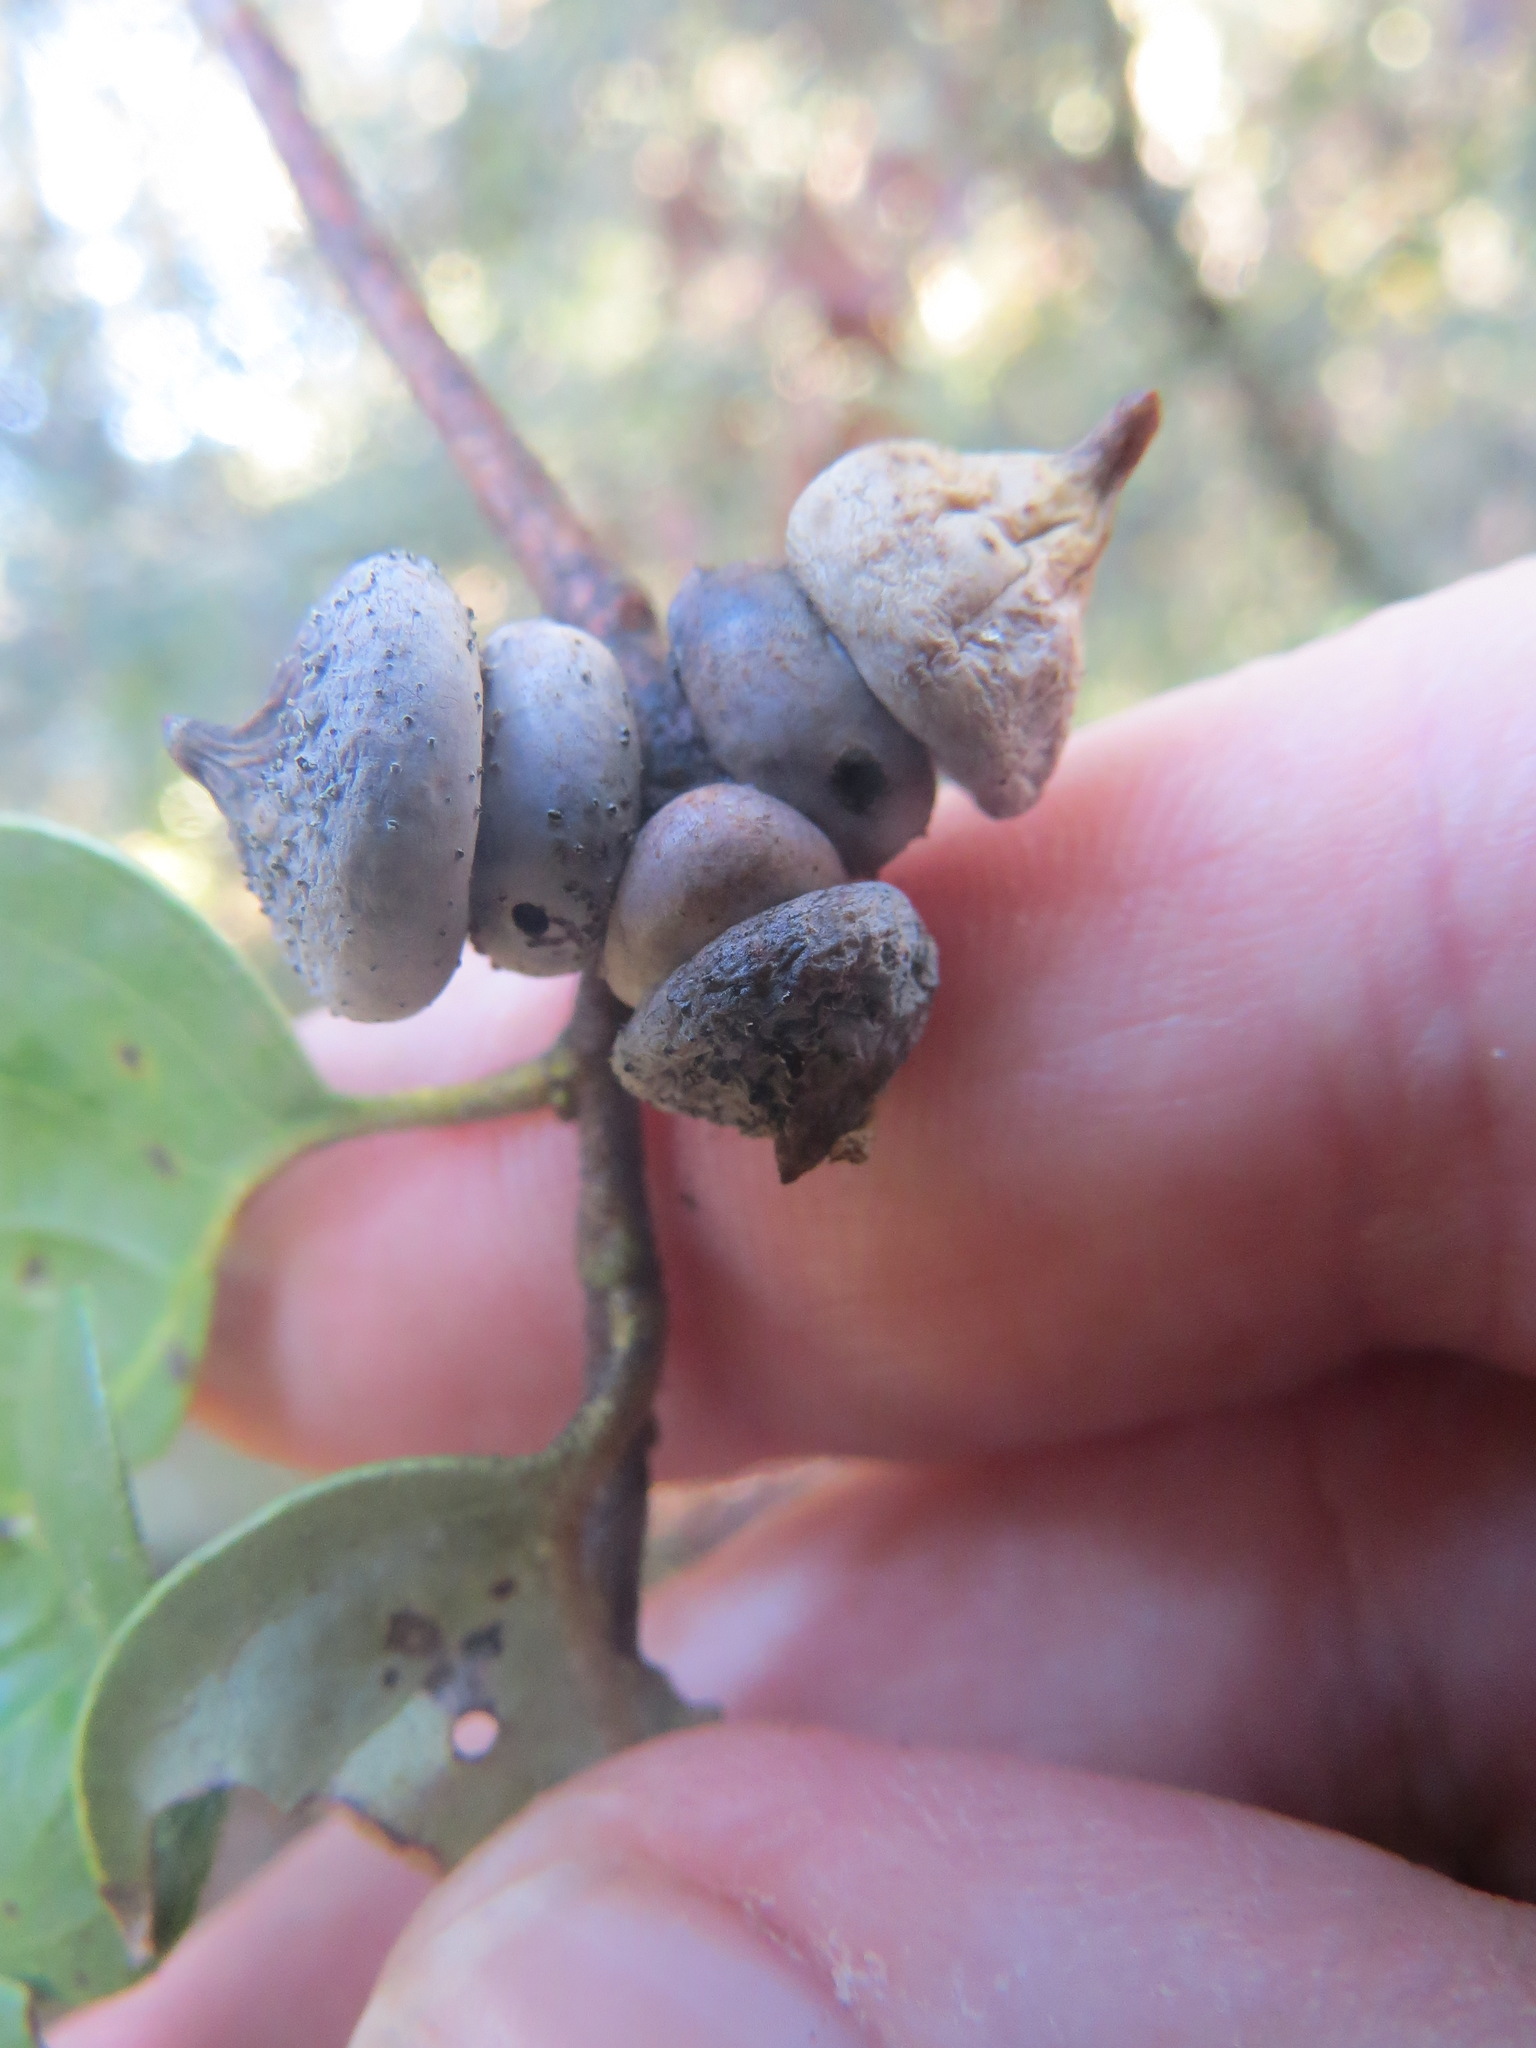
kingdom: Animalia
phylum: Arthropoda
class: Insecta
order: Hymenoptera
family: Cynipidae
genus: Heteroecus
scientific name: Heteroecus
